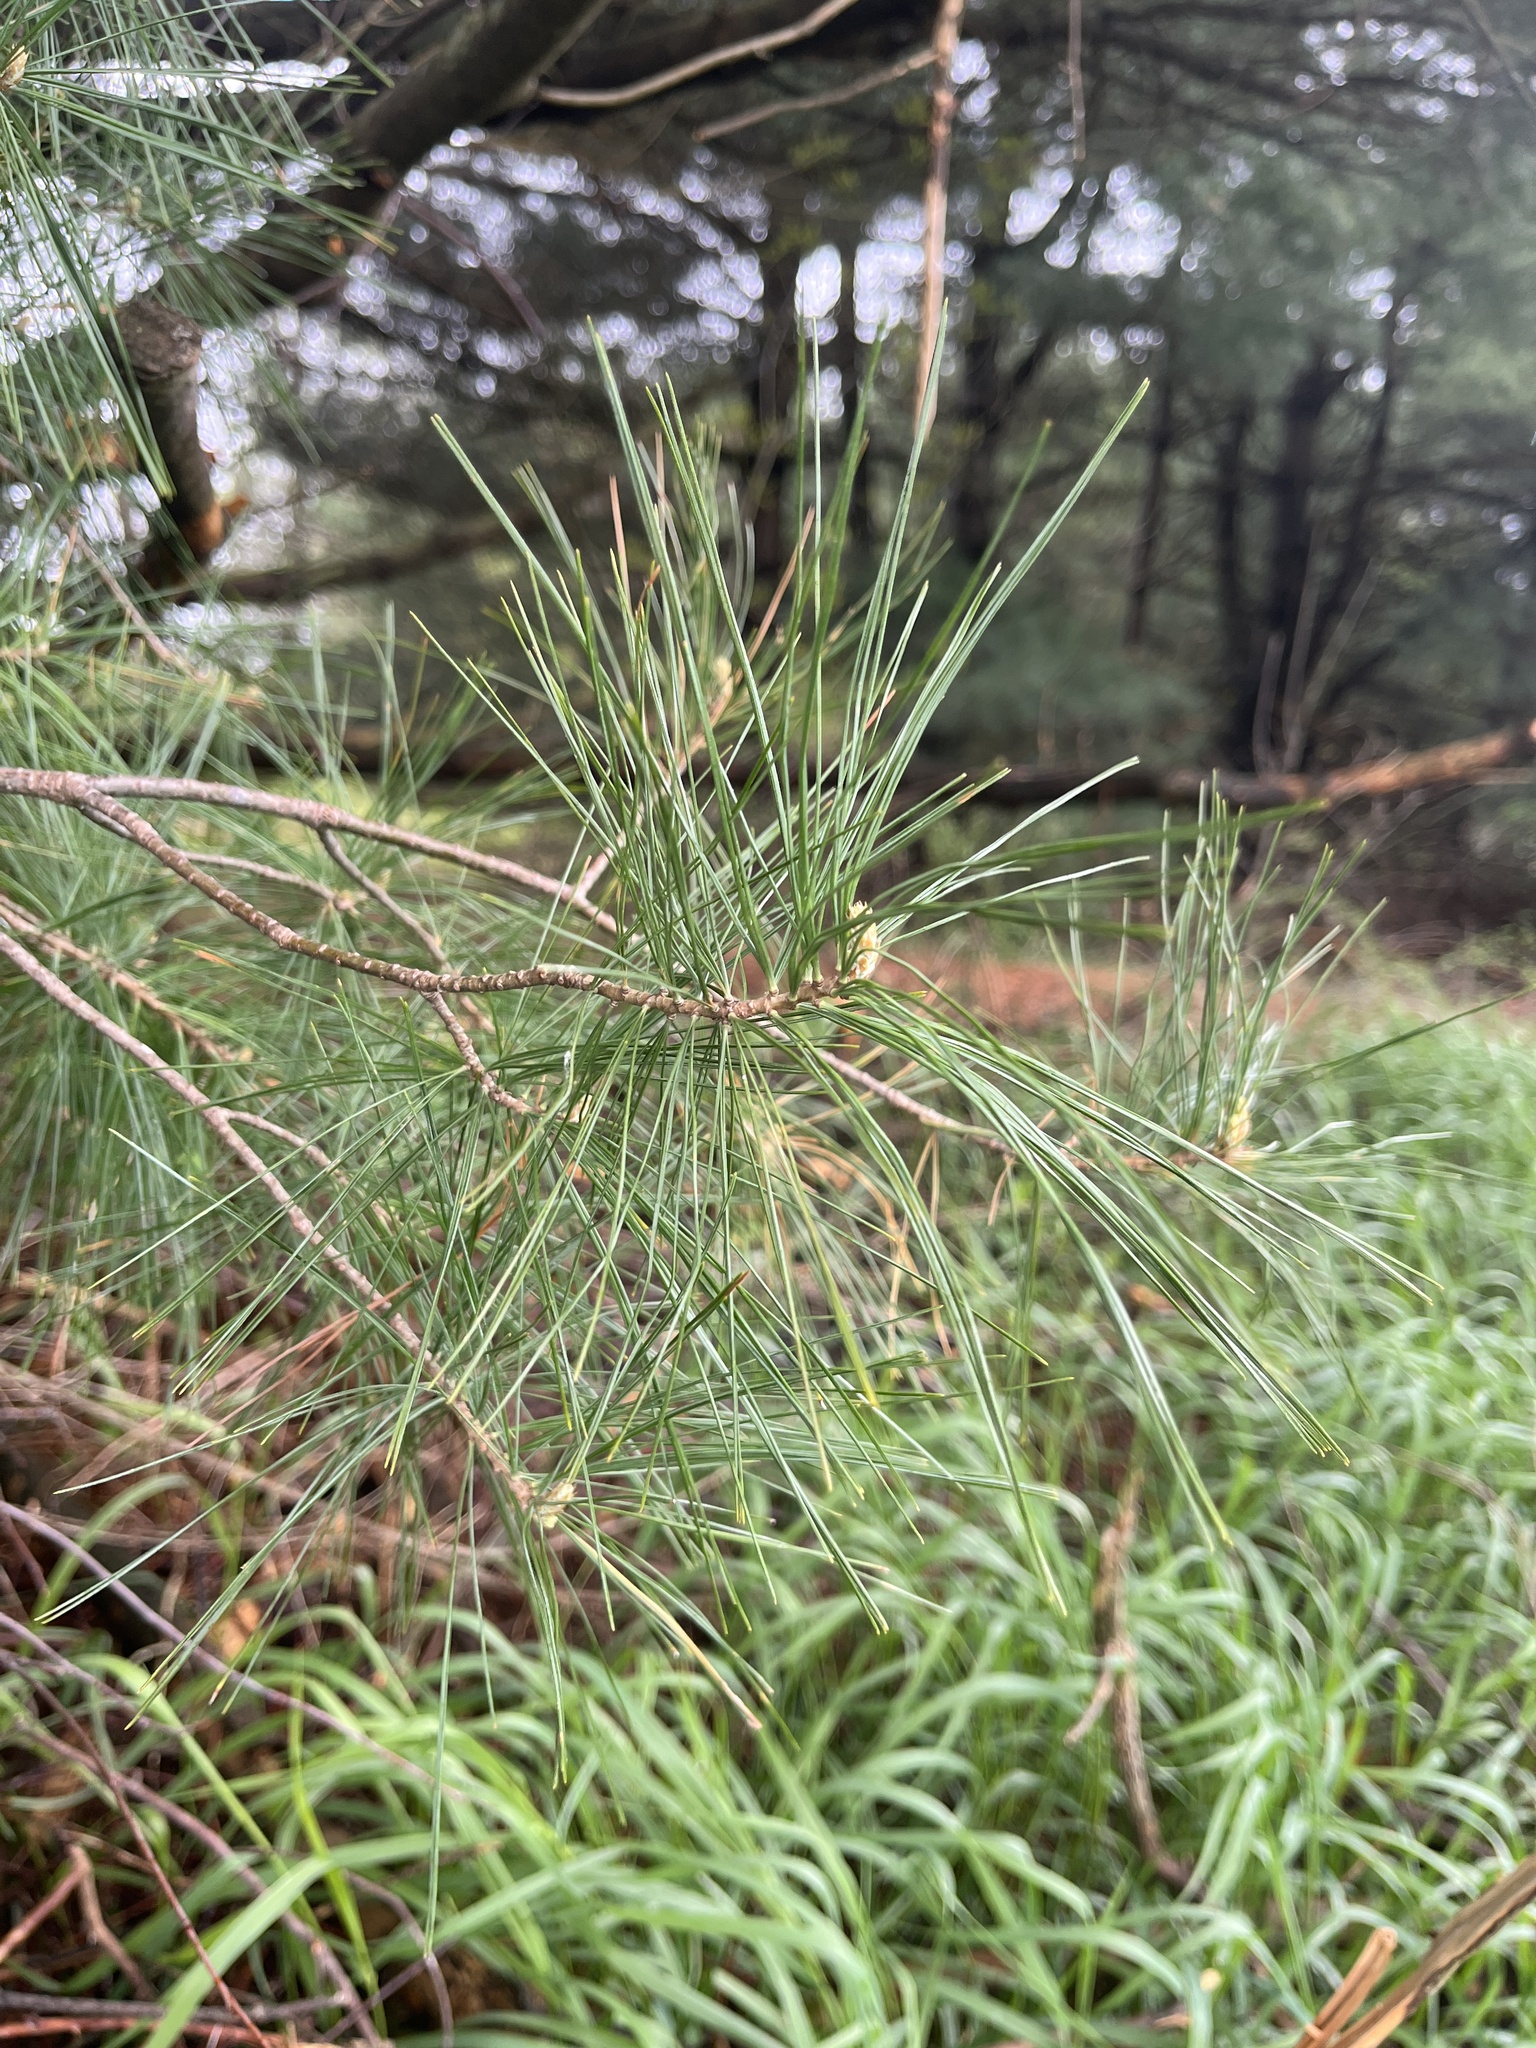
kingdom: Plantae
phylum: Tracheophyta
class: Pinopsida
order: Pinales
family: Pinaceae
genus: Pinus
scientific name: Pinus strobus
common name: Weymouth pine
